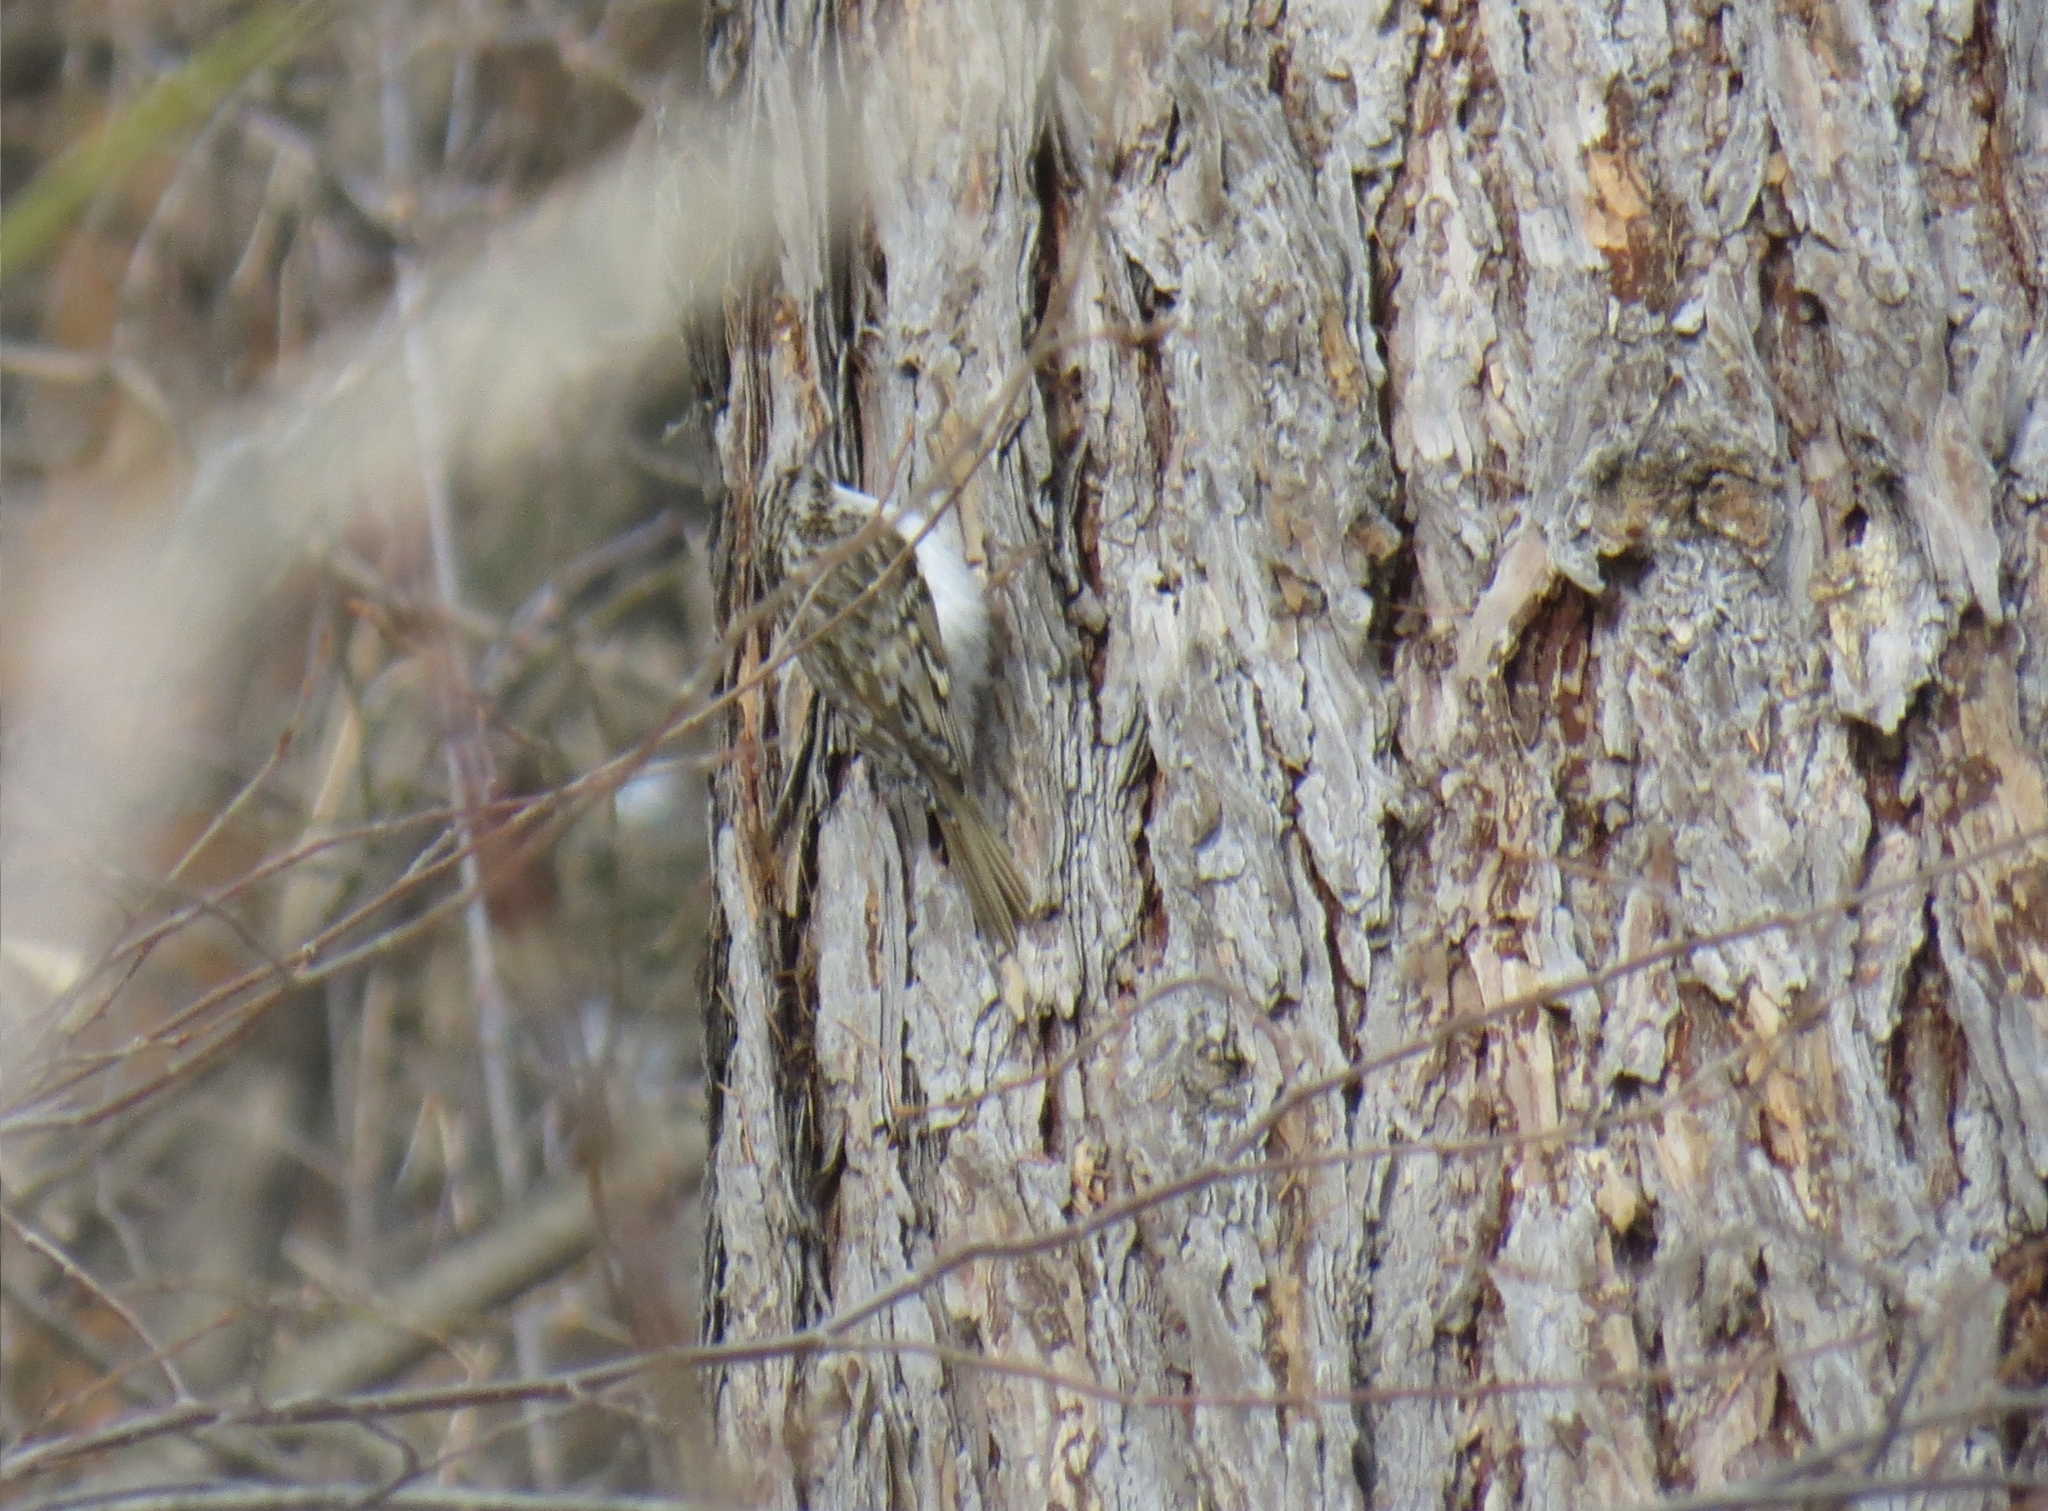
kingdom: Animalia
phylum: Chordata
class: Aves
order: Passeriformes
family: Certhiidae
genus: Certhia
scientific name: Certhia familiaris
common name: Eurasian treecreeper
